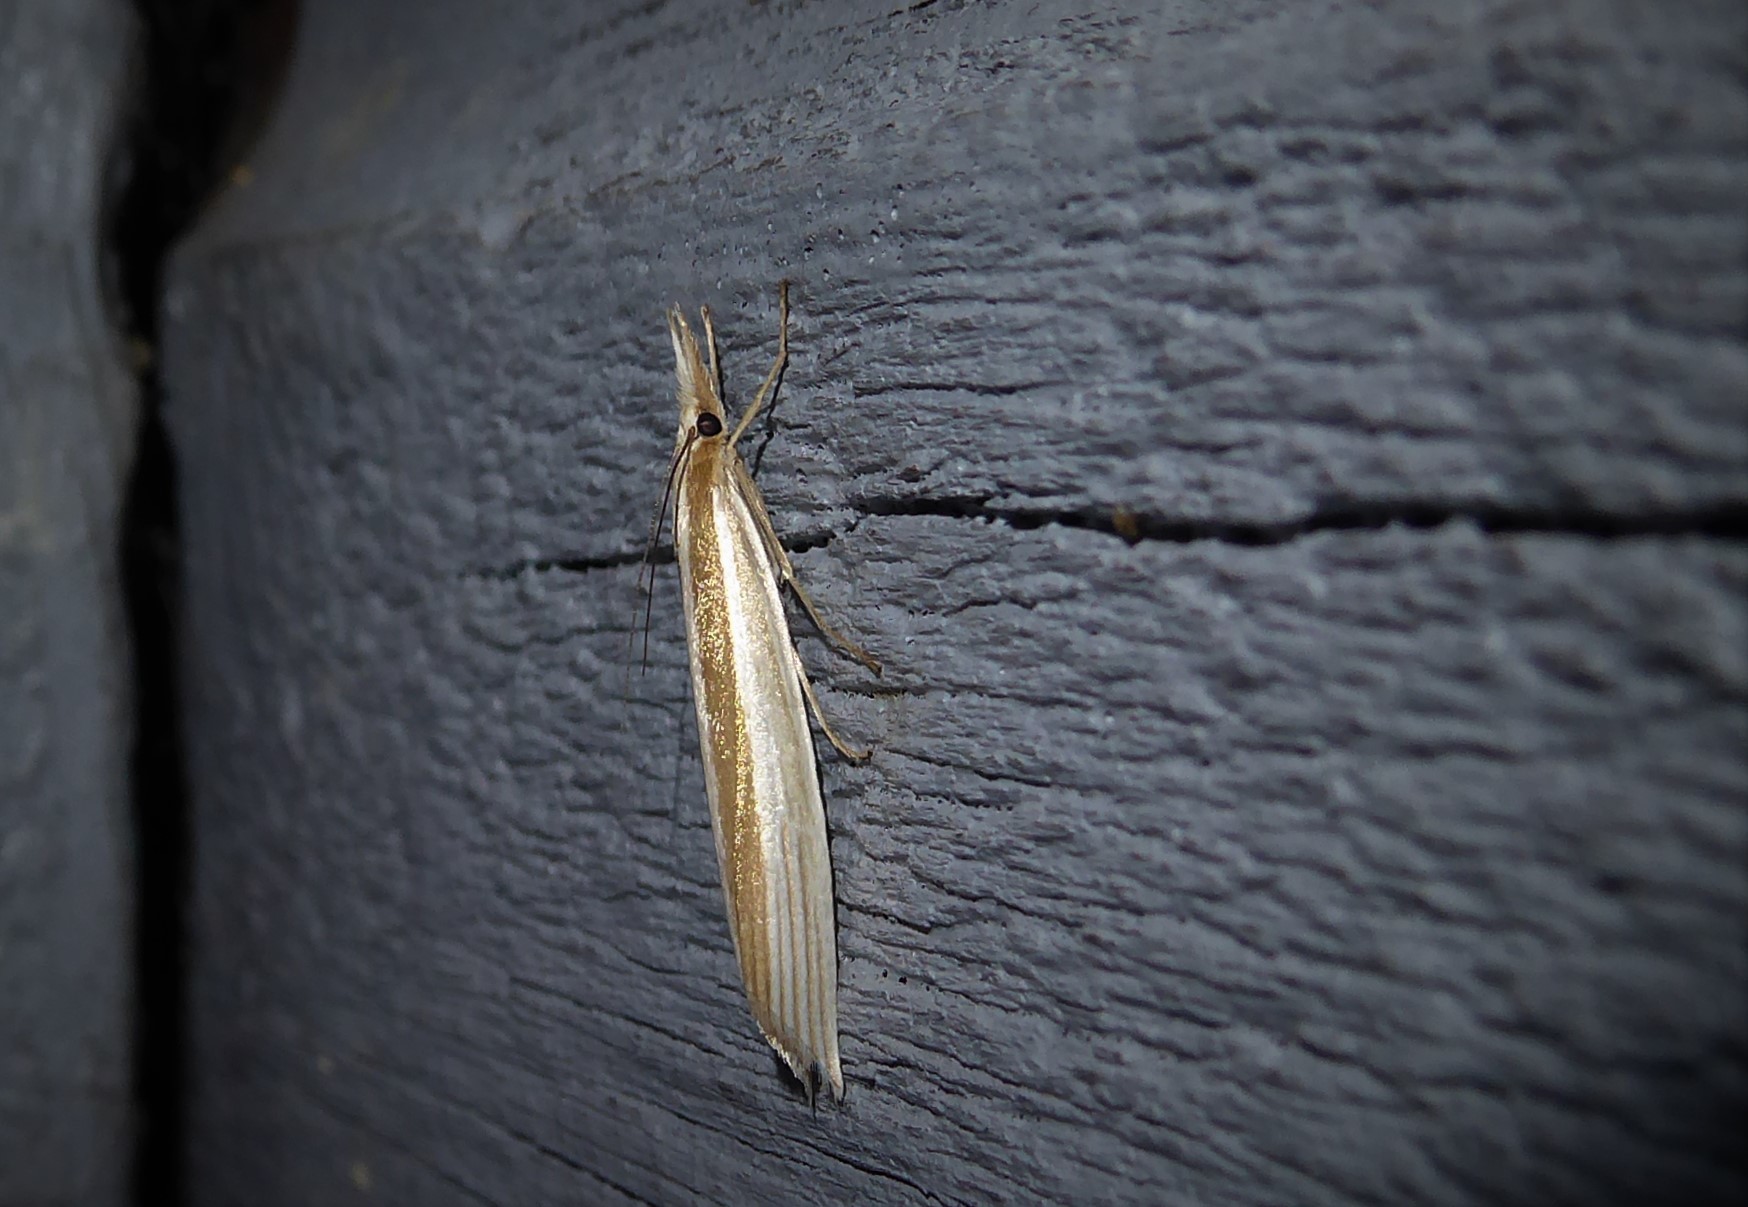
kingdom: Animalia
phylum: Arthropoda
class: Insecta
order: Lepidoptera
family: Crambidae
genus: Orocrambus
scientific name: Orocrambus angustipennis
